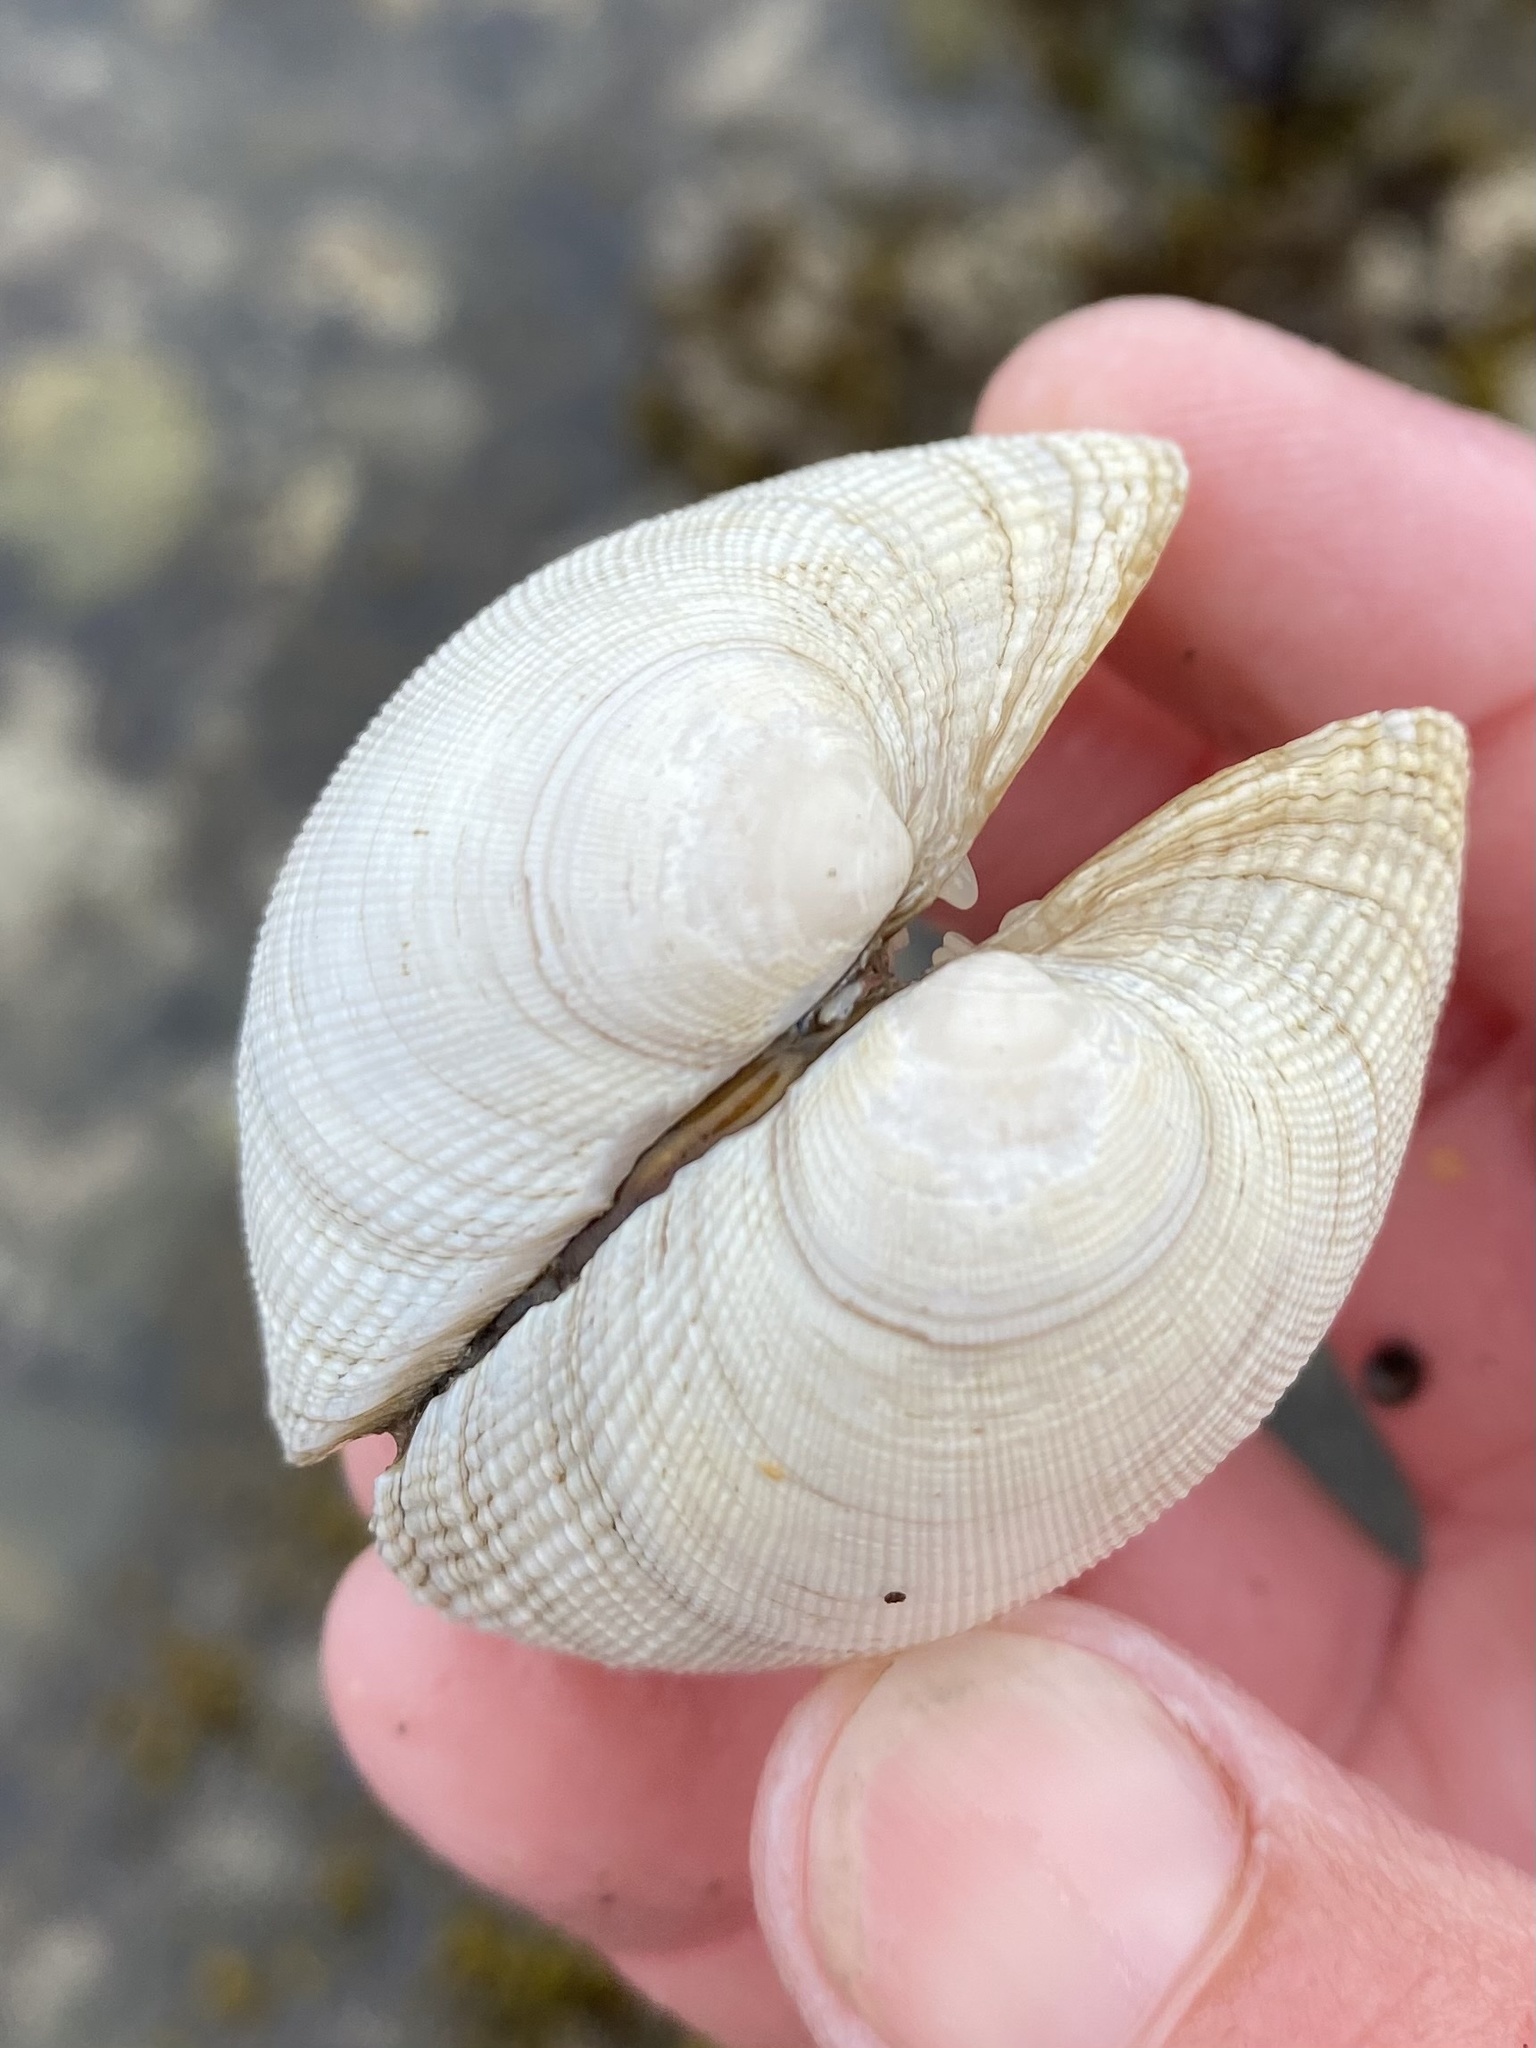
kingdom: Animalia
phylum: Mollusca
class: Bivalvia
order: Venerida
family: Veneridae
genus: Leukoma
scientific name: Leukoma staminea
